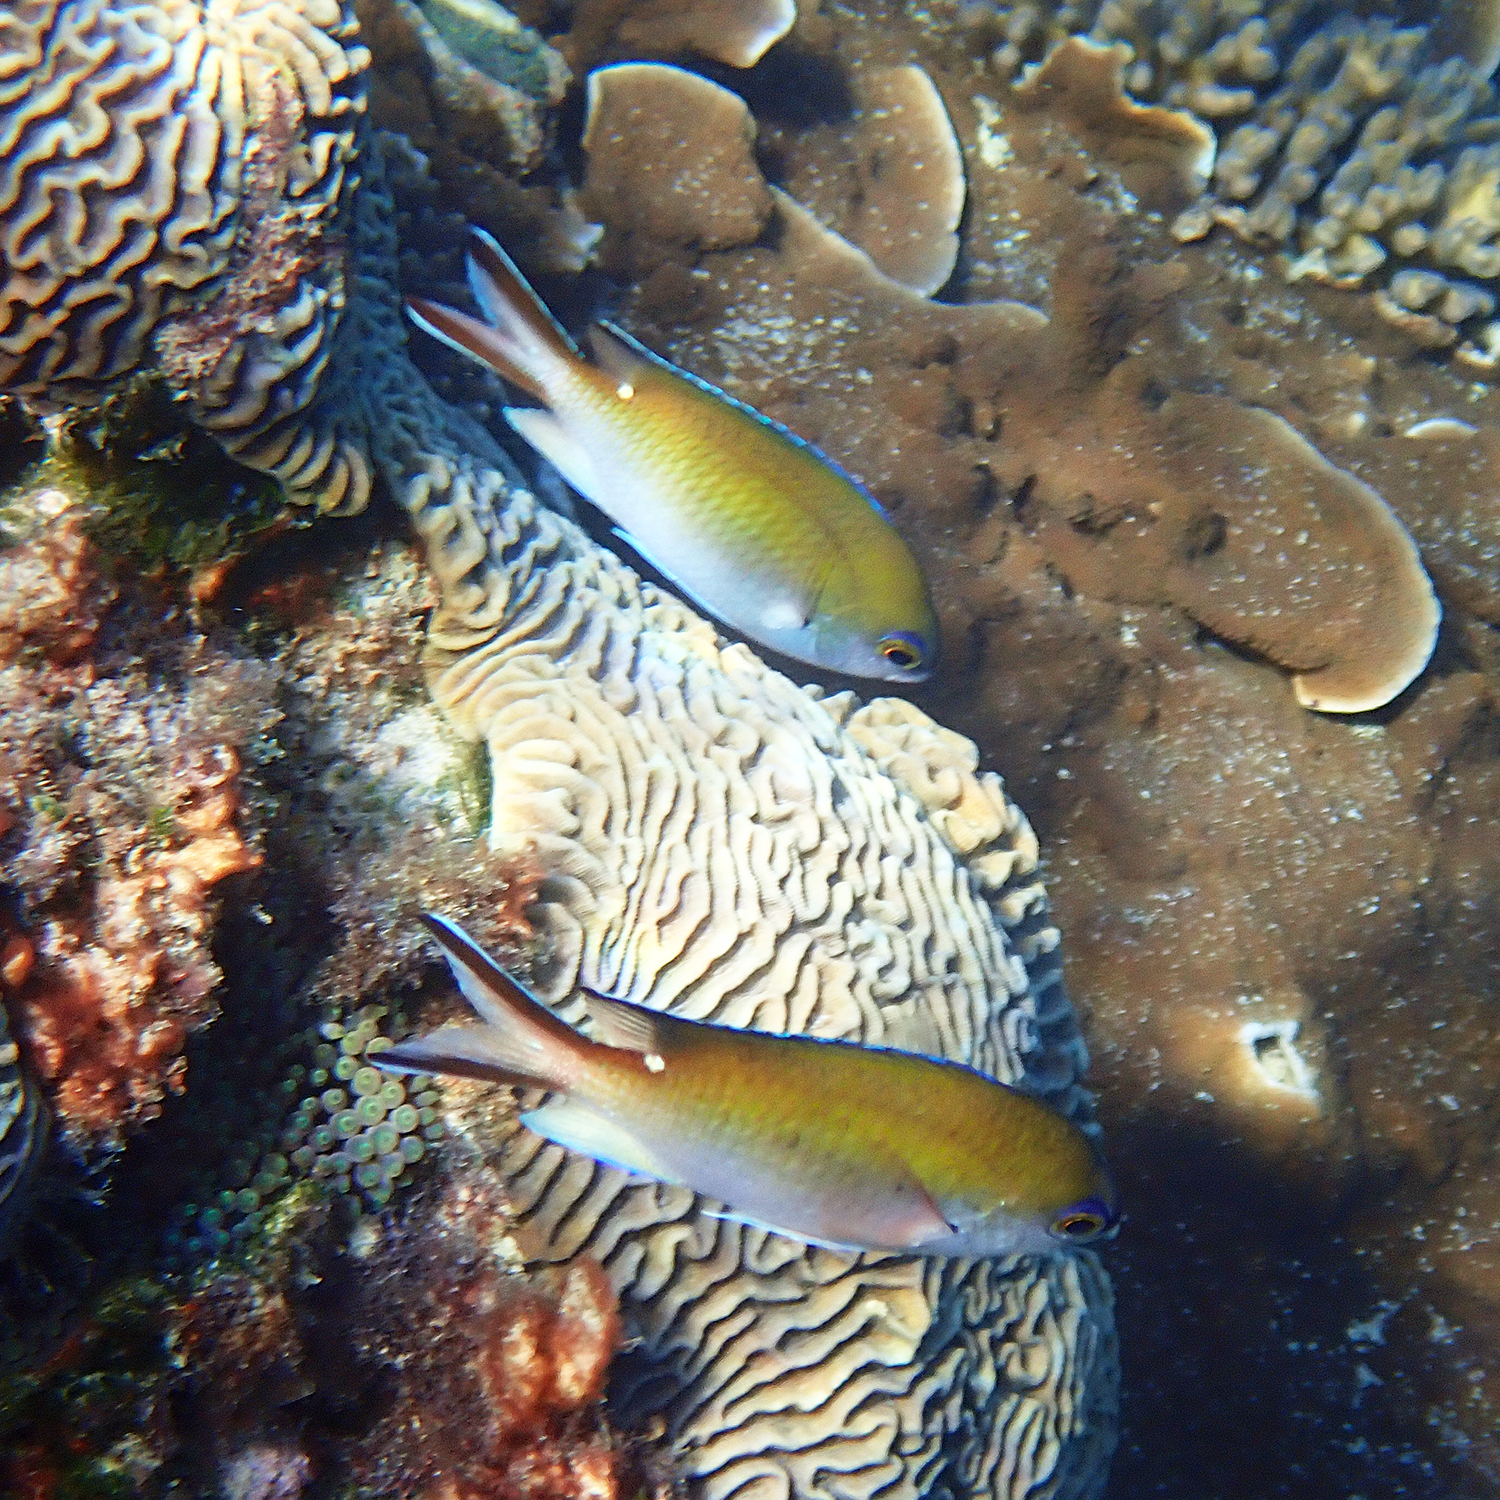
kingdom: Animalia
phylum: Chordata
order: Perciformes
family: Pomacentridae
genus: Chromis
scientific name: Chromis norfolkensis
